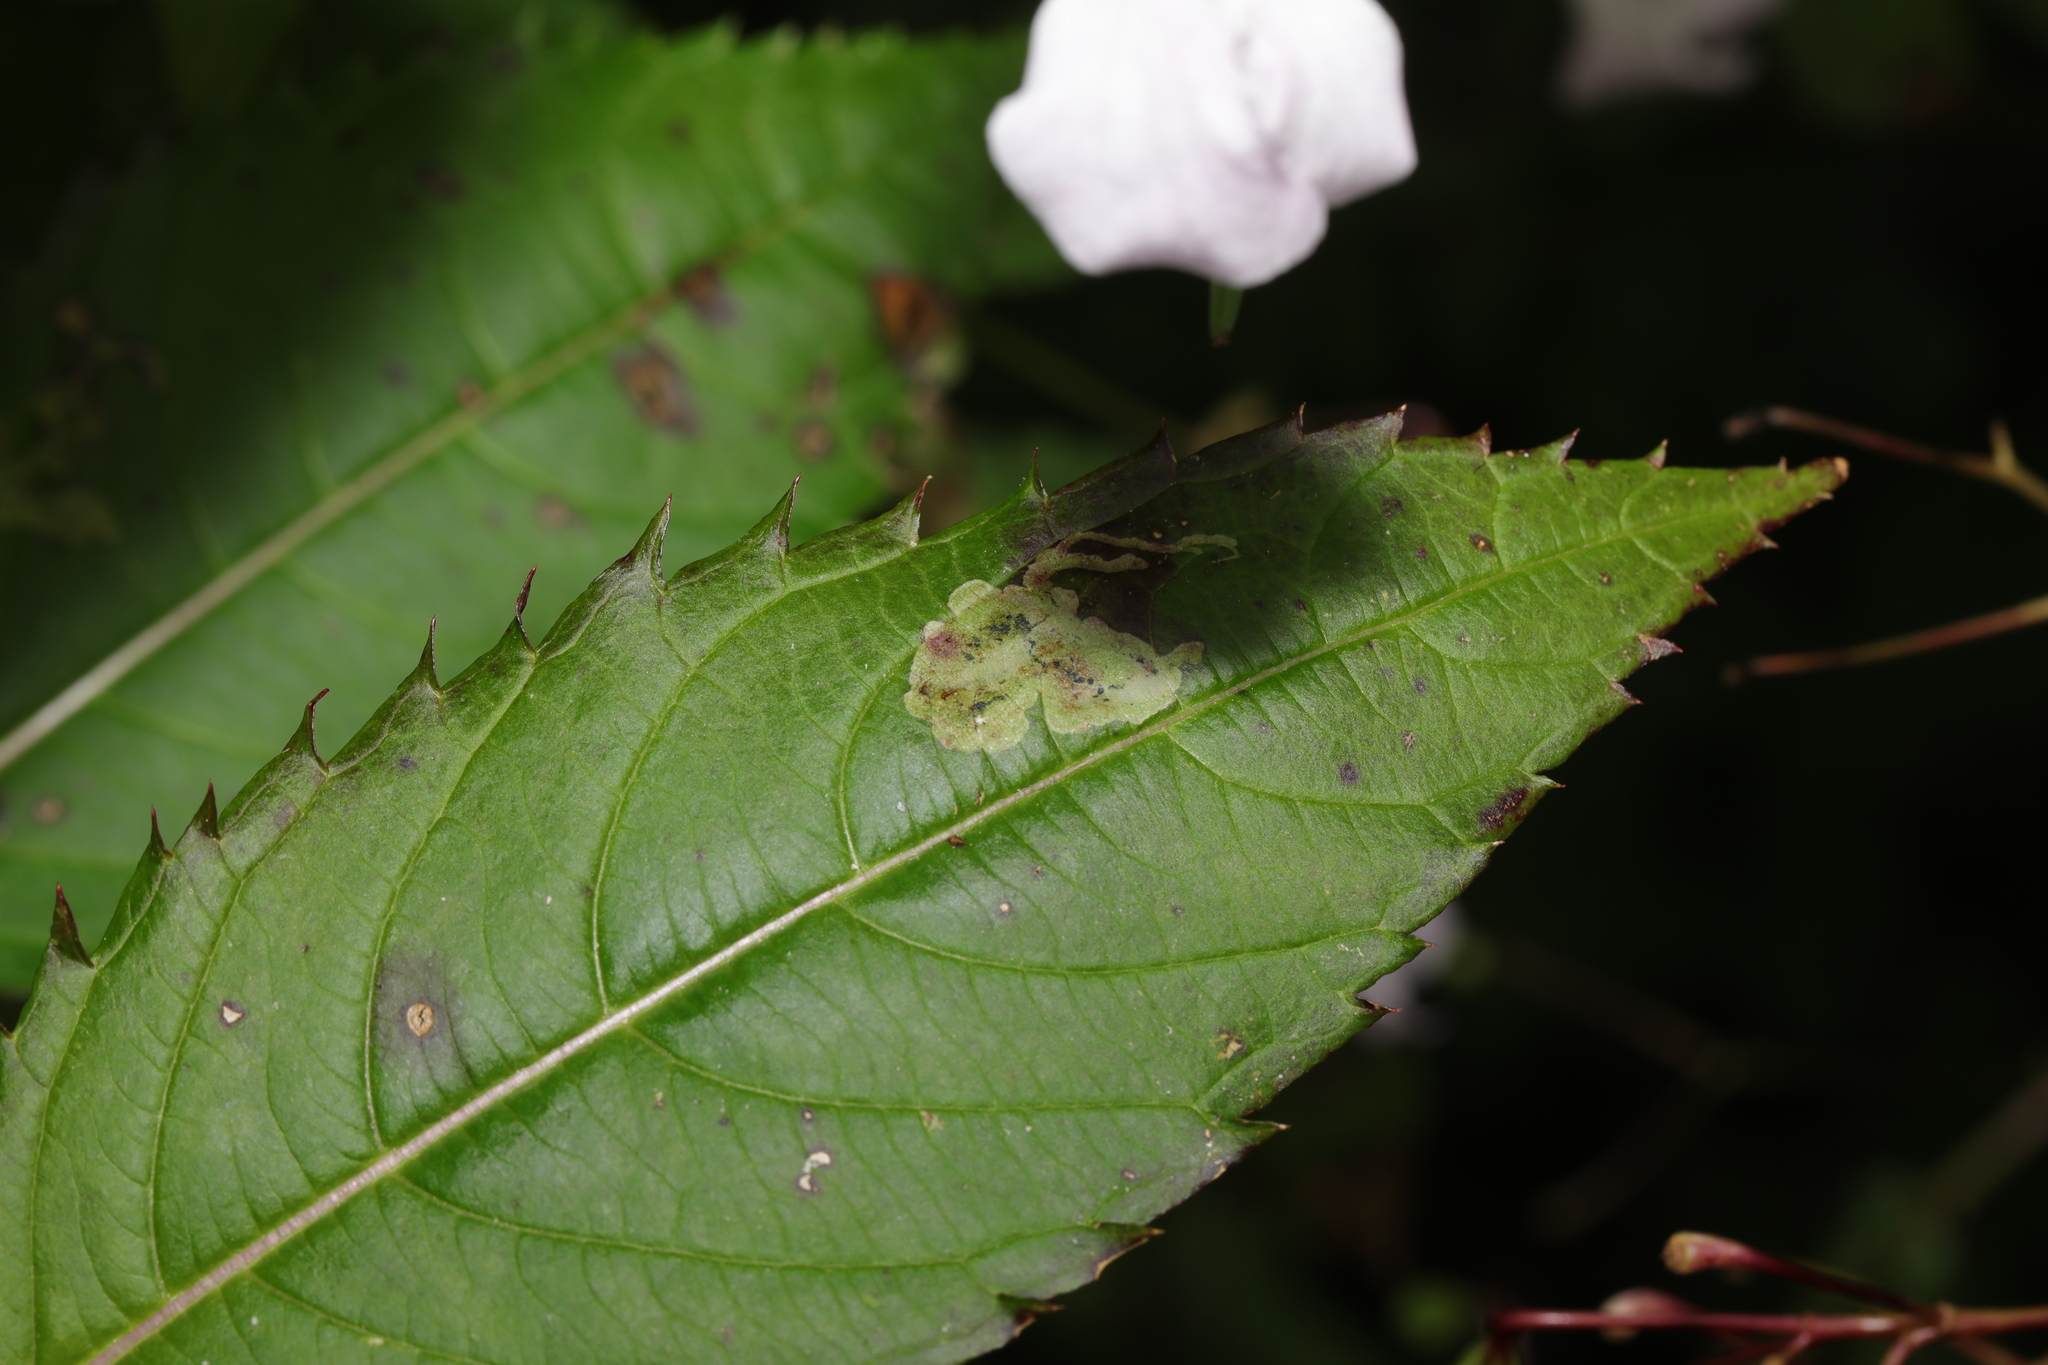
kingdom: Animalia
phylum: Arthropoda
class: Insecta
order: Diptera
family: Agromyzidae
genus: Phytoliriomyza
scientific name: Phytoliriomyza melampyga
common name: Jewelweed leaf-miner fly
